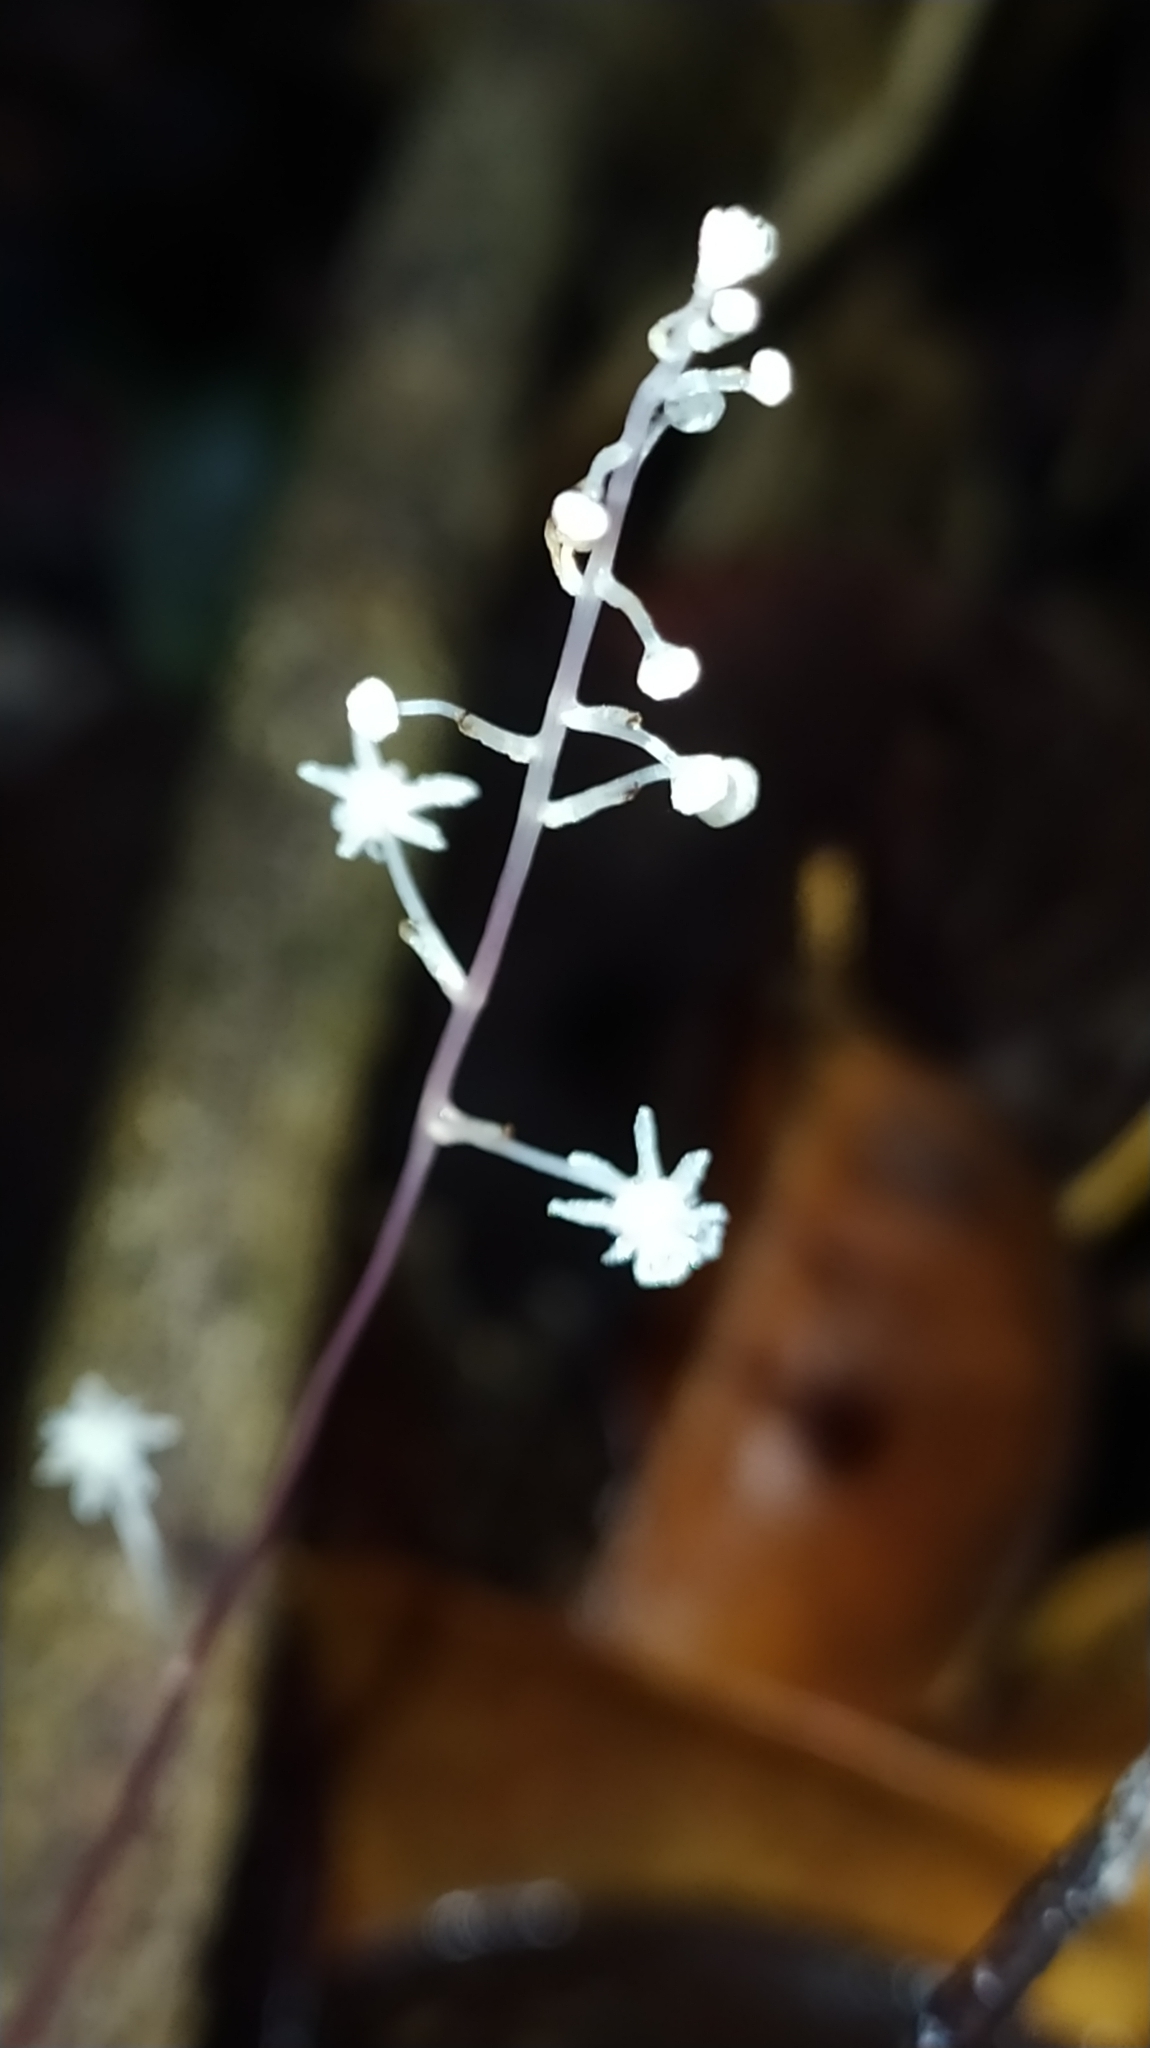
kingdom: Plantae
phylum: Tracheophyta
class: Liliopsida
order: Pandanales
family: Triuridaceae
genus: Sciaphila
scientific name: Sciaphila albescens
